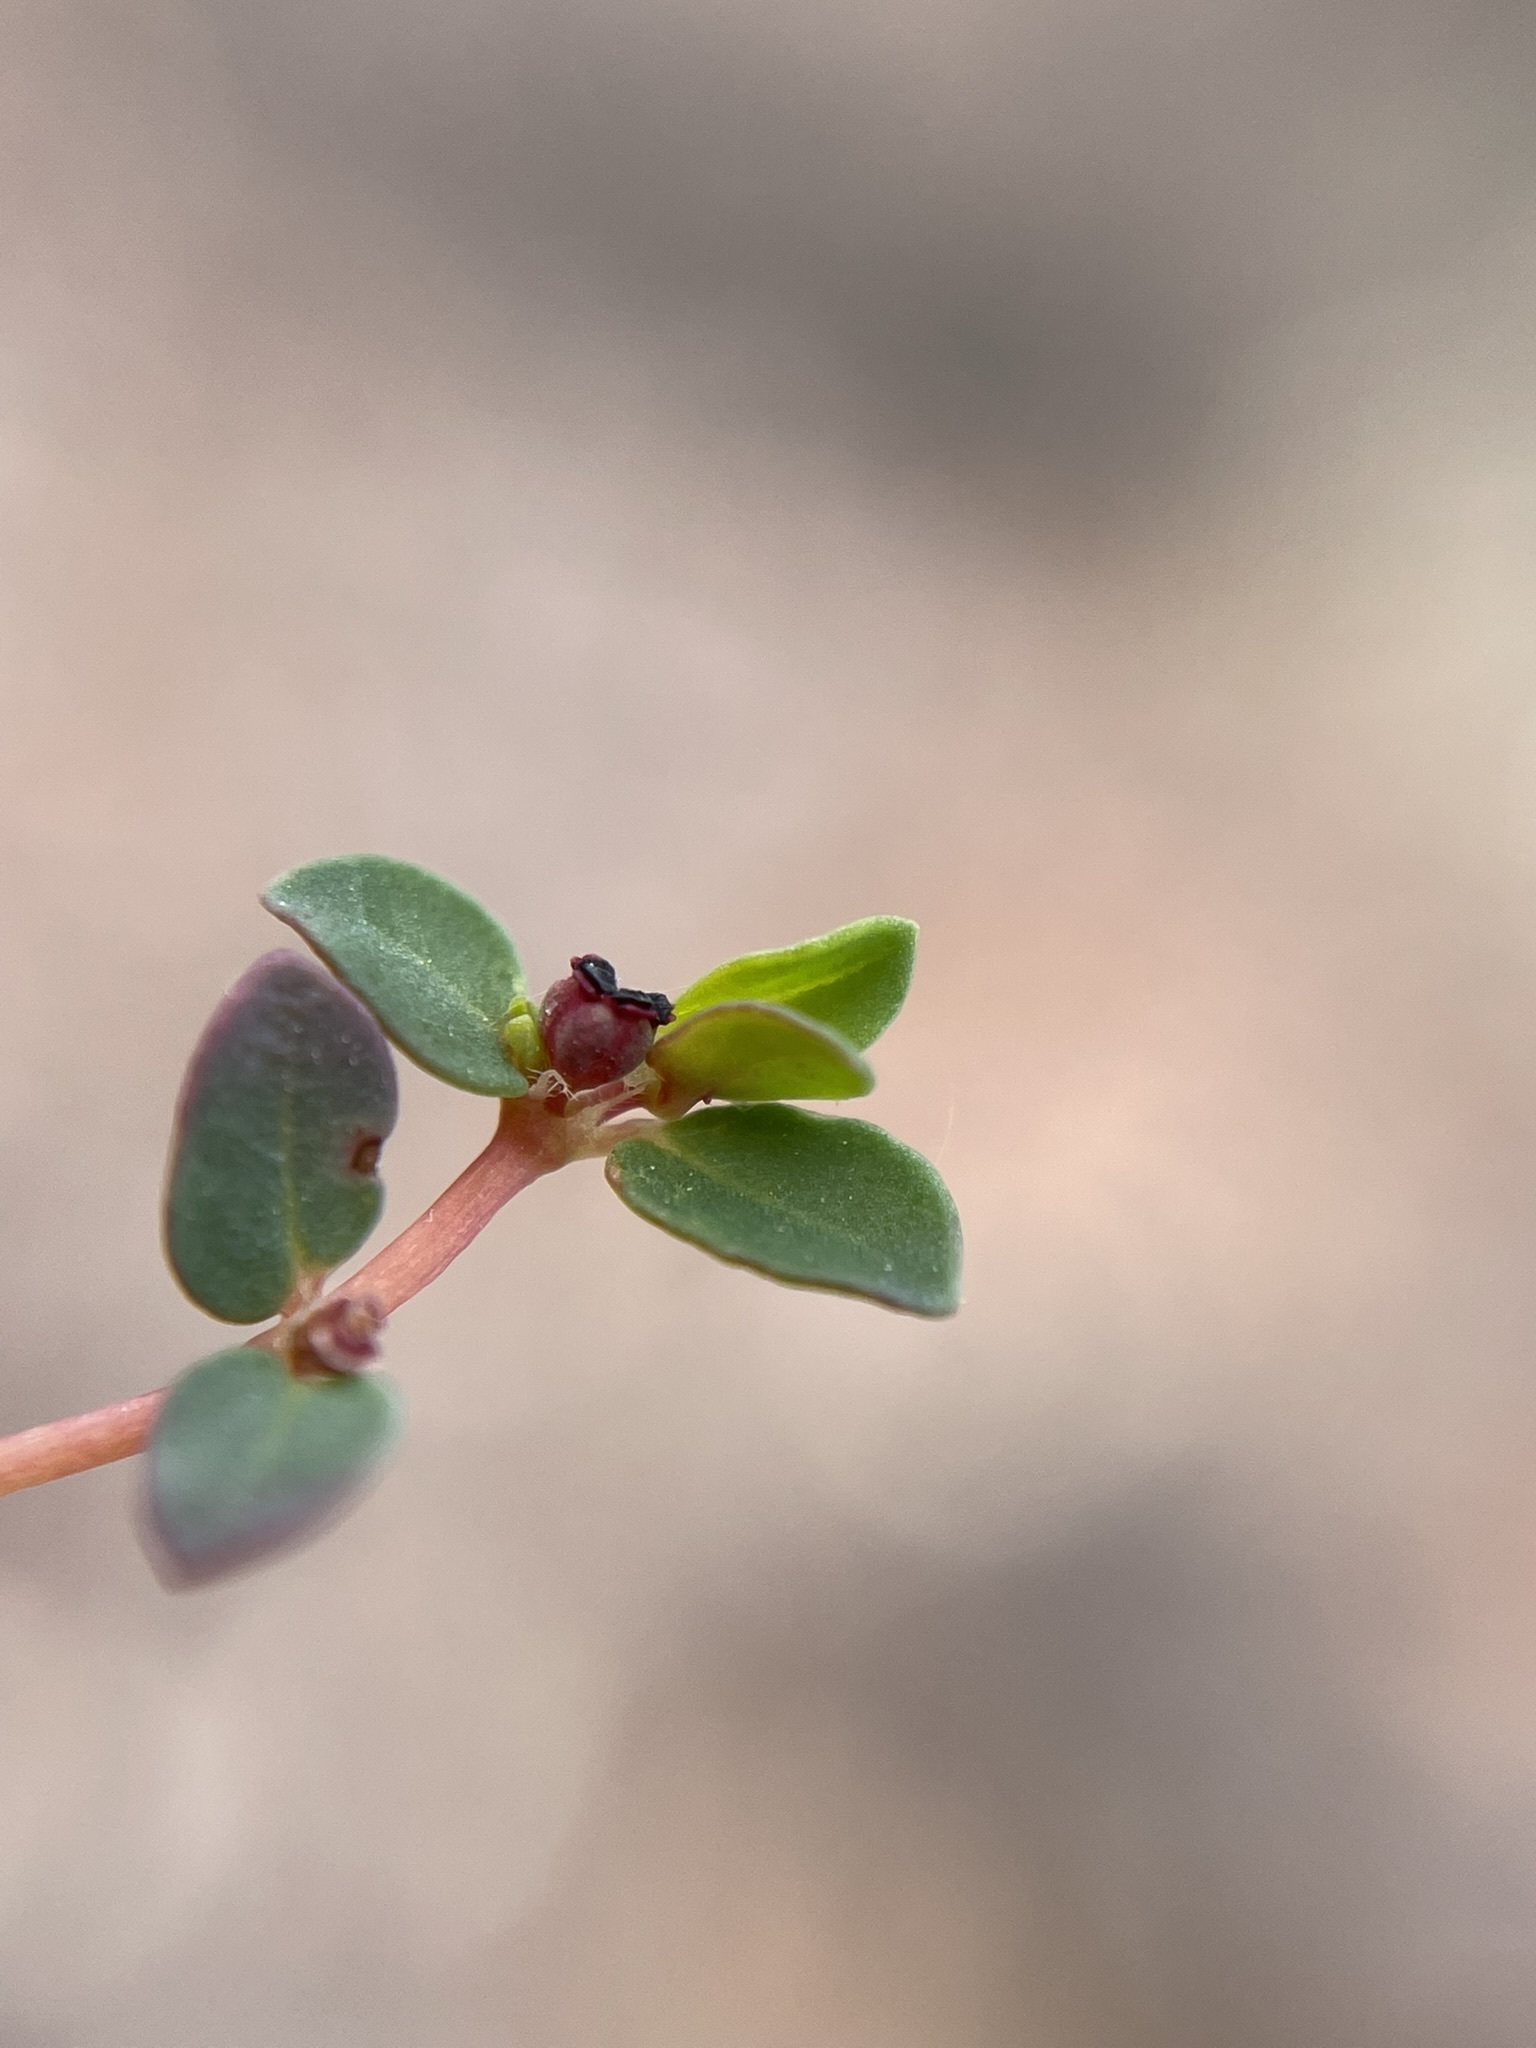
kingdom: Plantae
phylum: Tracheophyta
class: Magnoliopsida
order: Malpighiales
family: Euphorbiaceae
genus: Euphorbia
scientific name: Euphorbia polycarpa
